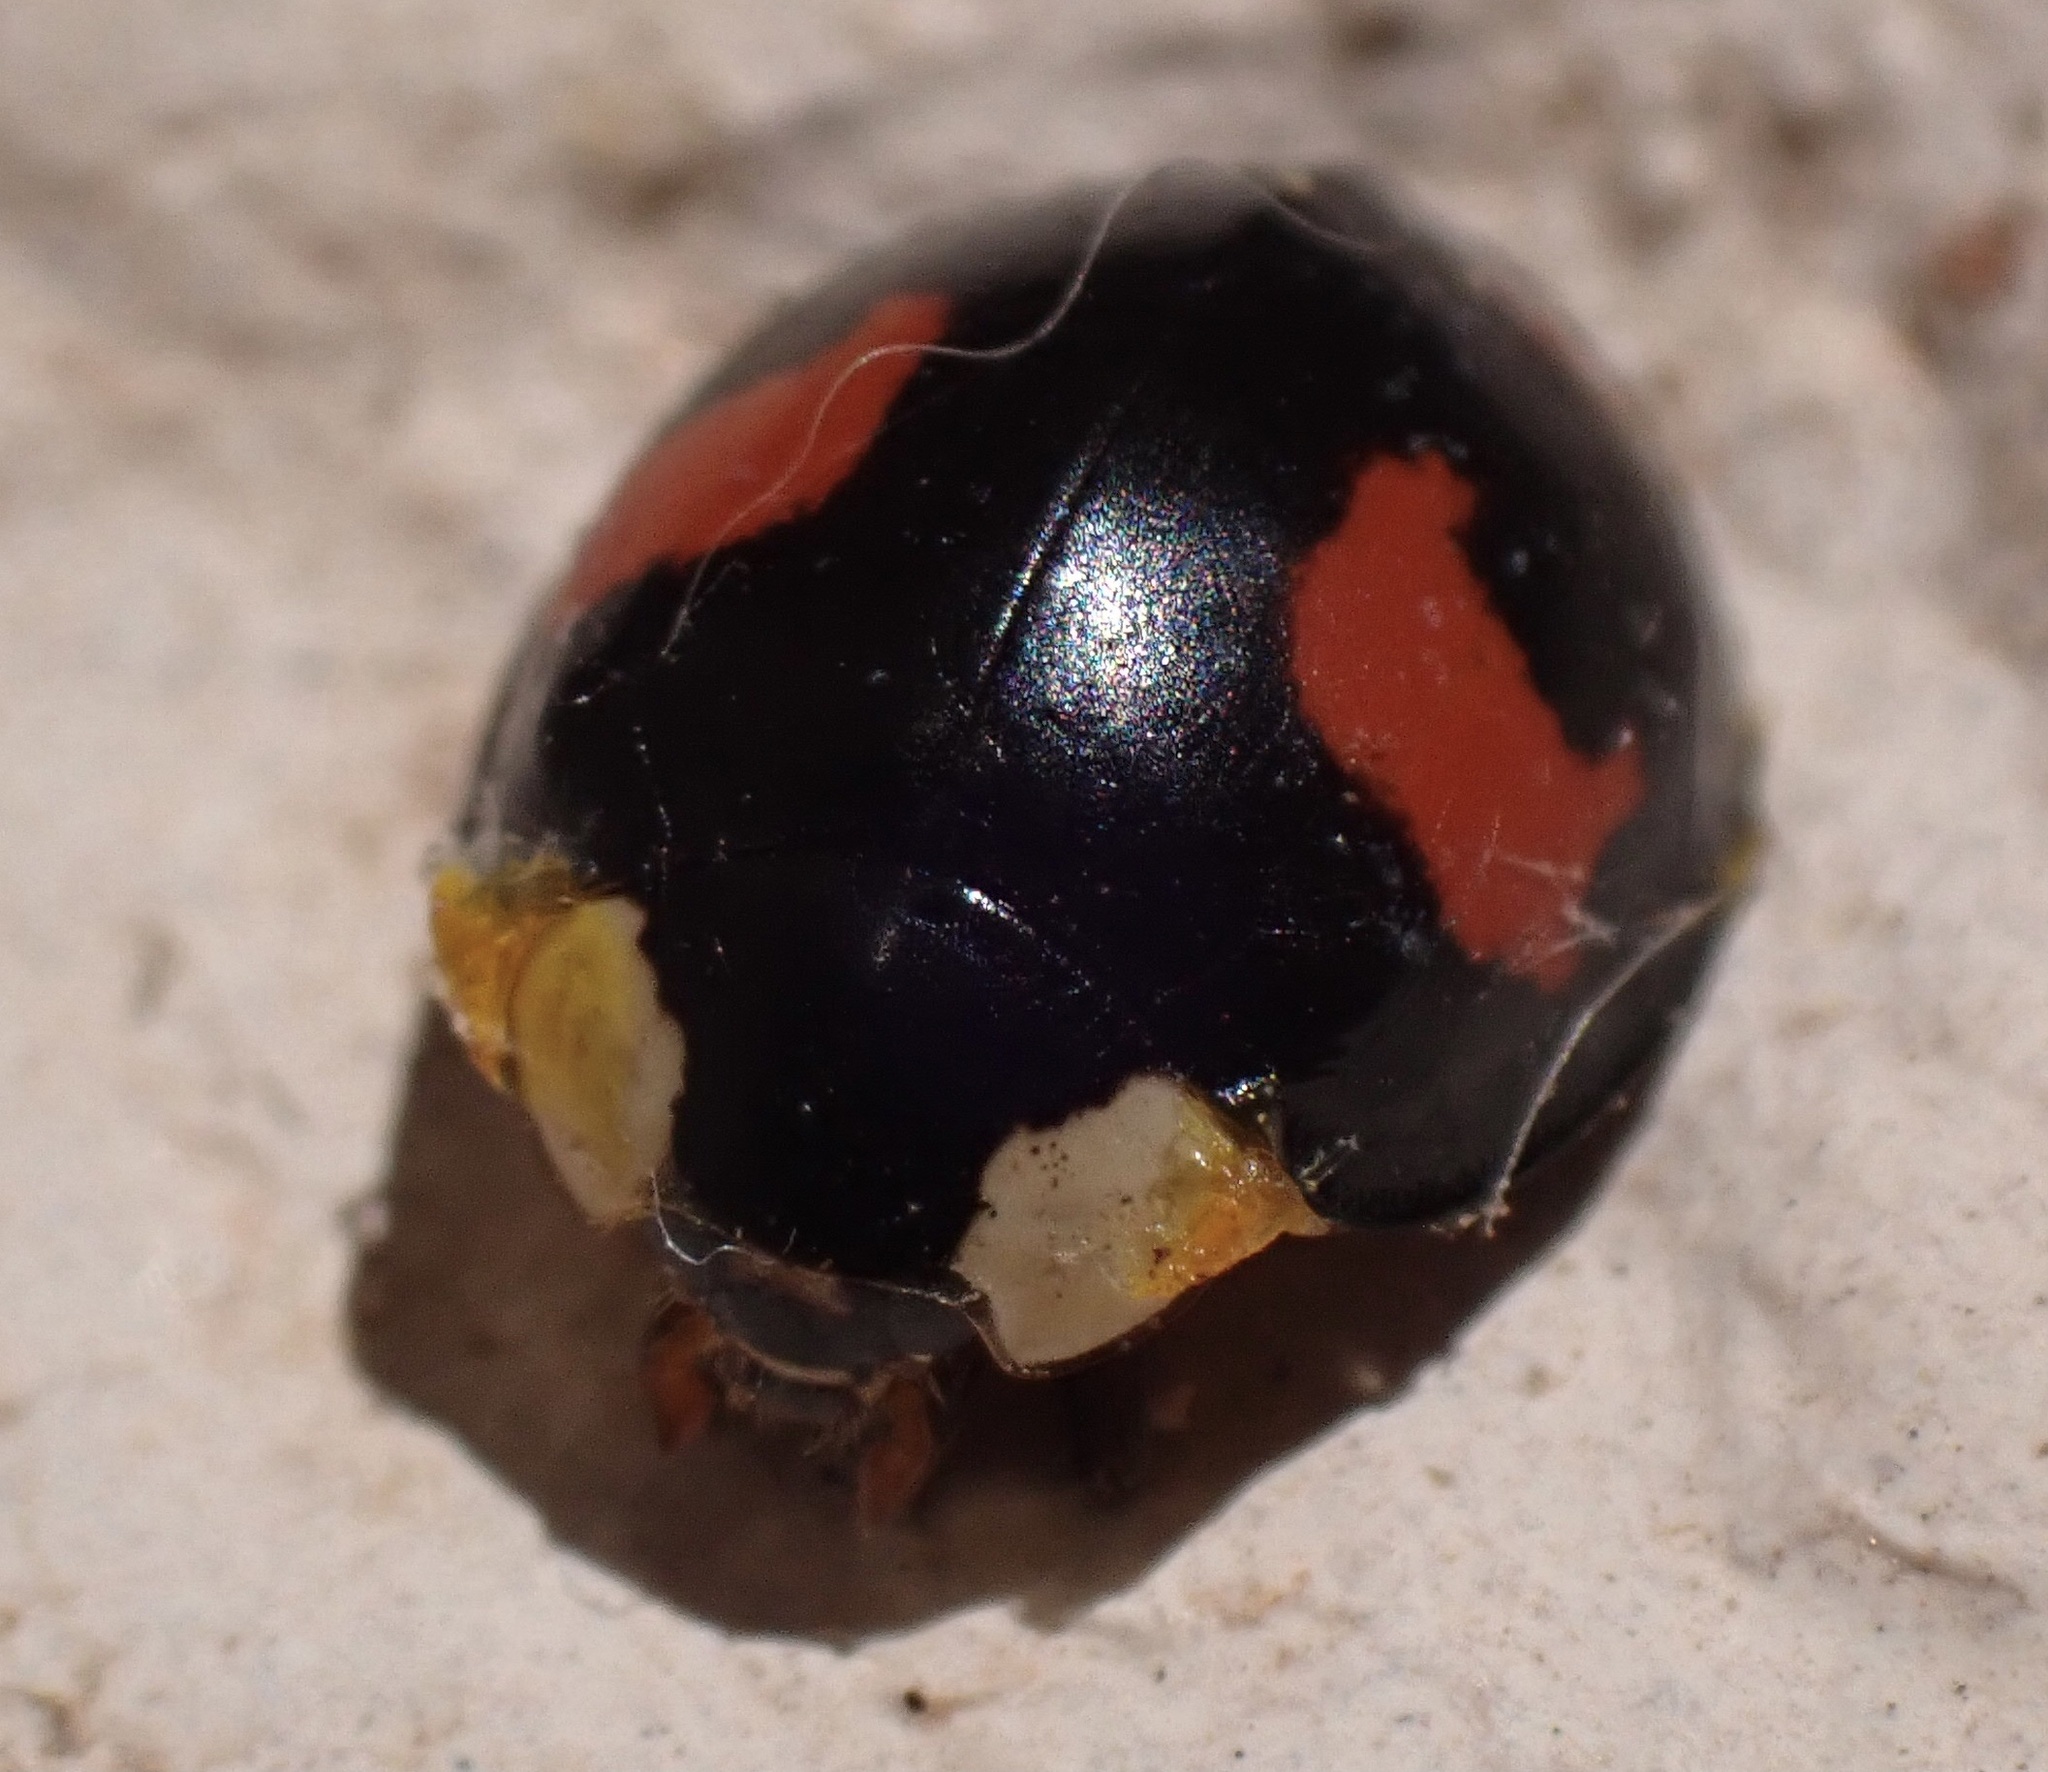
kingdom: Animalia
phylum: Arthropoda
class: Insecta
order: Coleoptera
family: Coccinellidae
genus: Harmonia
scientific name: Harmonia axyridis
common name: Harlequin ladybird
